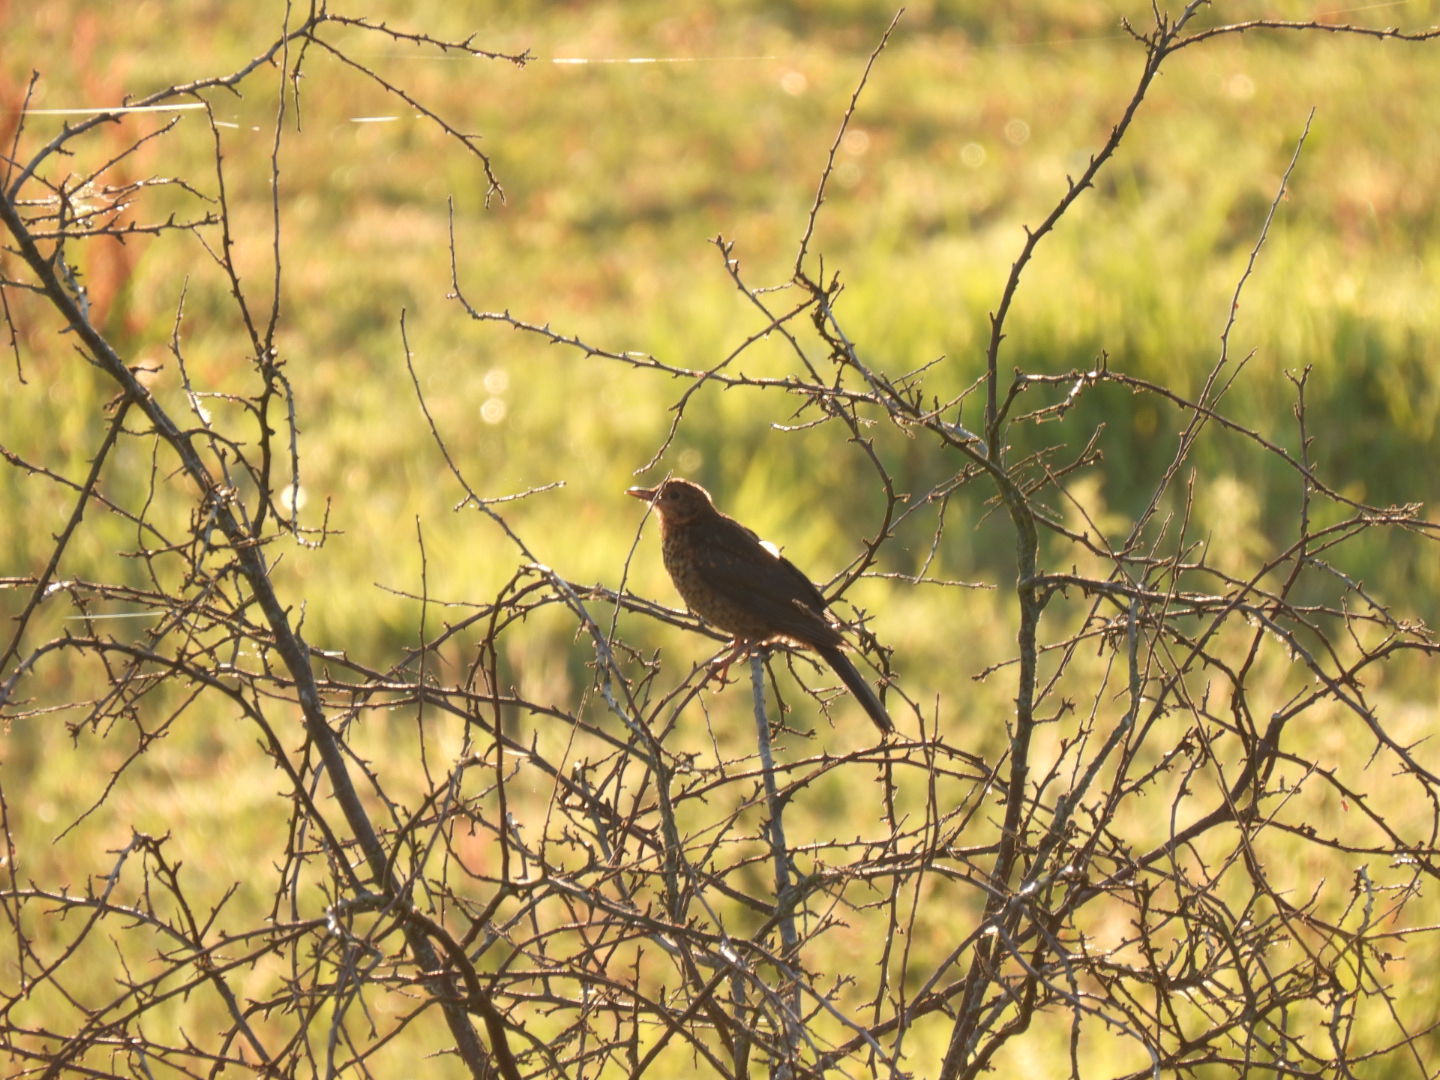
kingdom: Animalia
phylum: Chordata
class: Aves
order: Passeriformes
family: Turdidae
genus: Turdus
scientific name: Turdus merula
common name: Common blackbird
